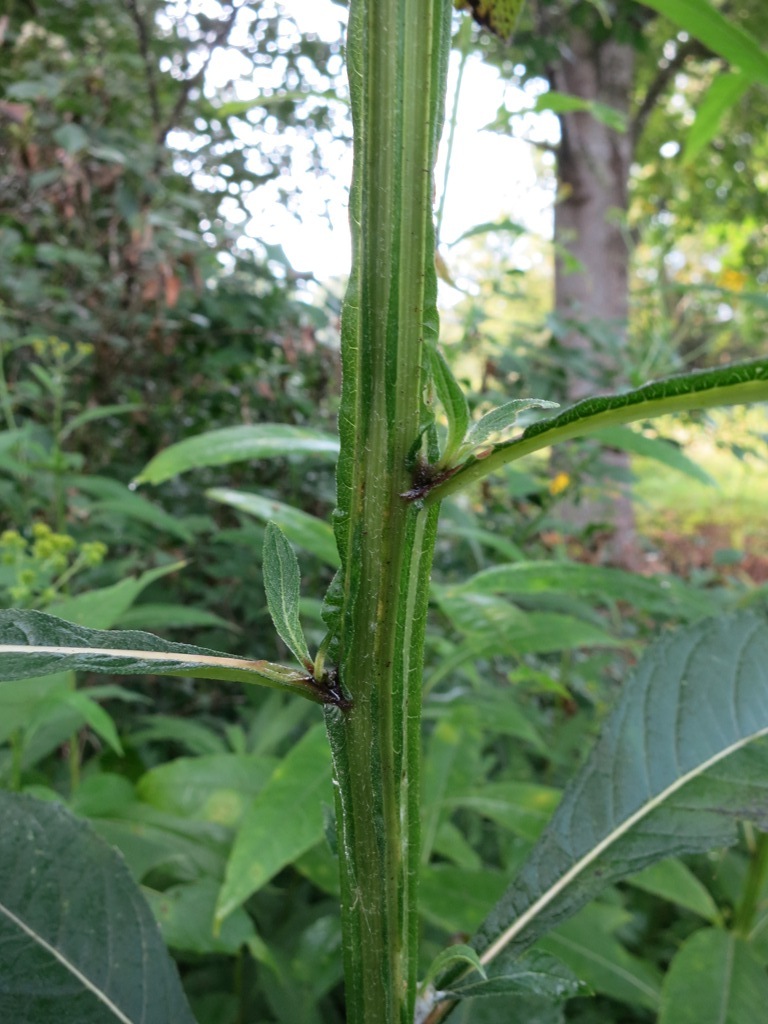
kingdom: Plantae
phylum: Tracheophyta
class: Magnoliopsida
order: Asterales
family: Asteraceae
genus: Verbesina
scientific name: Verbesina alternifolia
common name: Wingstem
